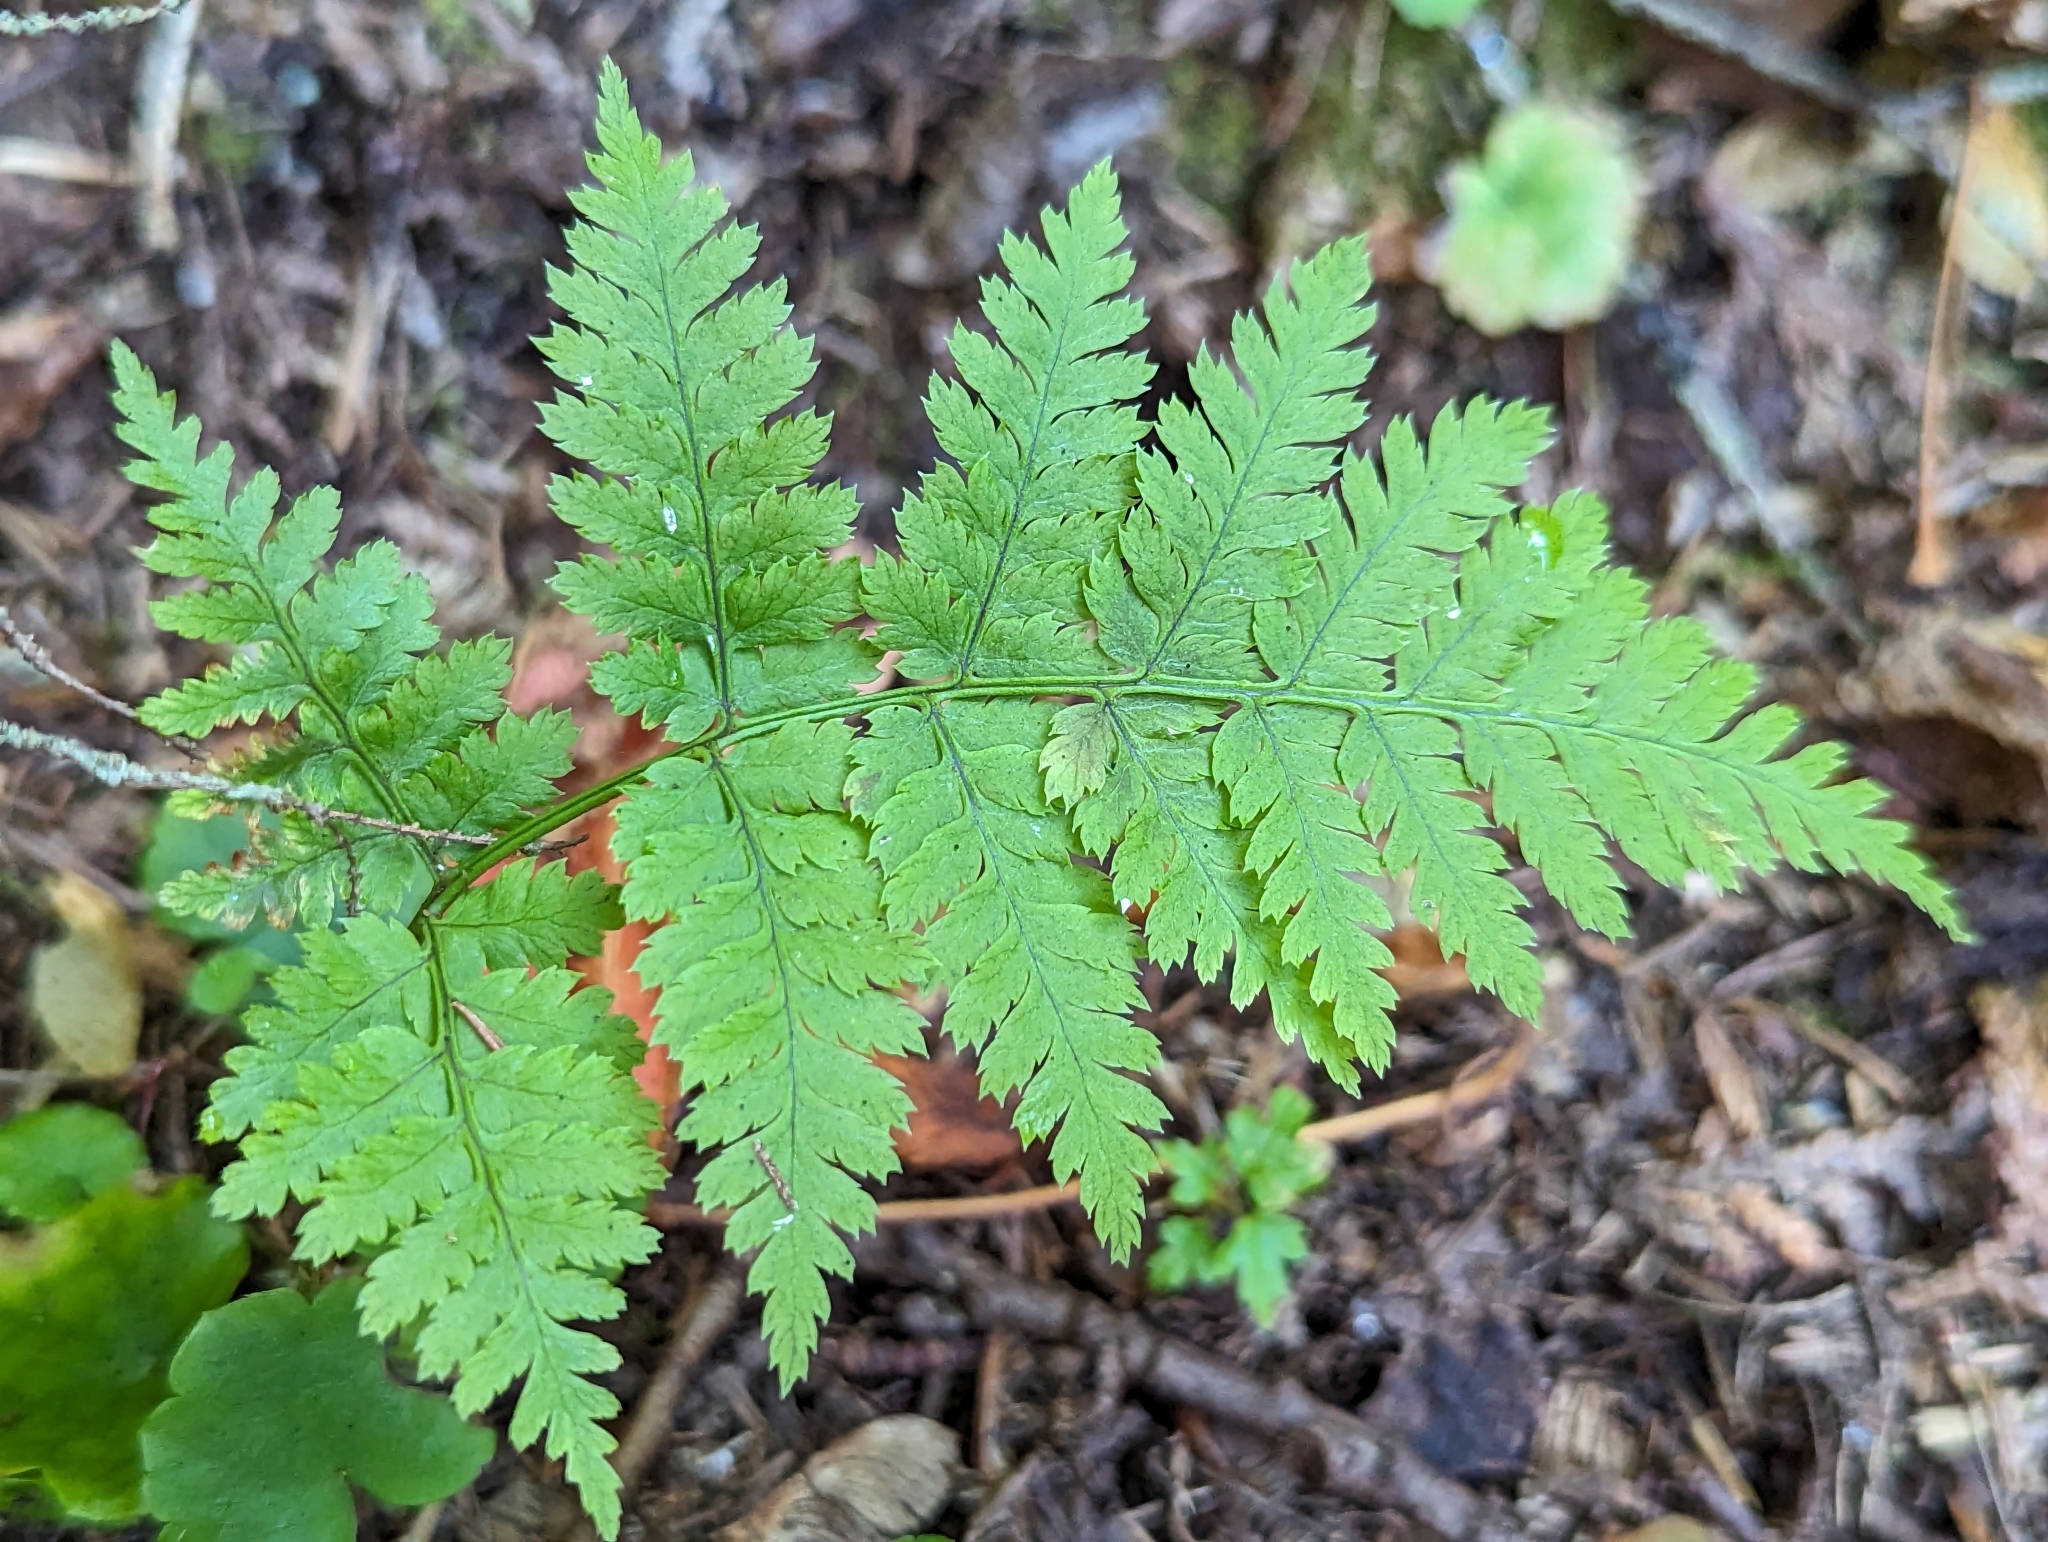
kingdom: Plantae
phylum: Tracheophyta
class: Polypodiopsida
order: Polypodiales
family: Dryopteridaceae
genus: Dryopteris
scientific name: Dryopteris
